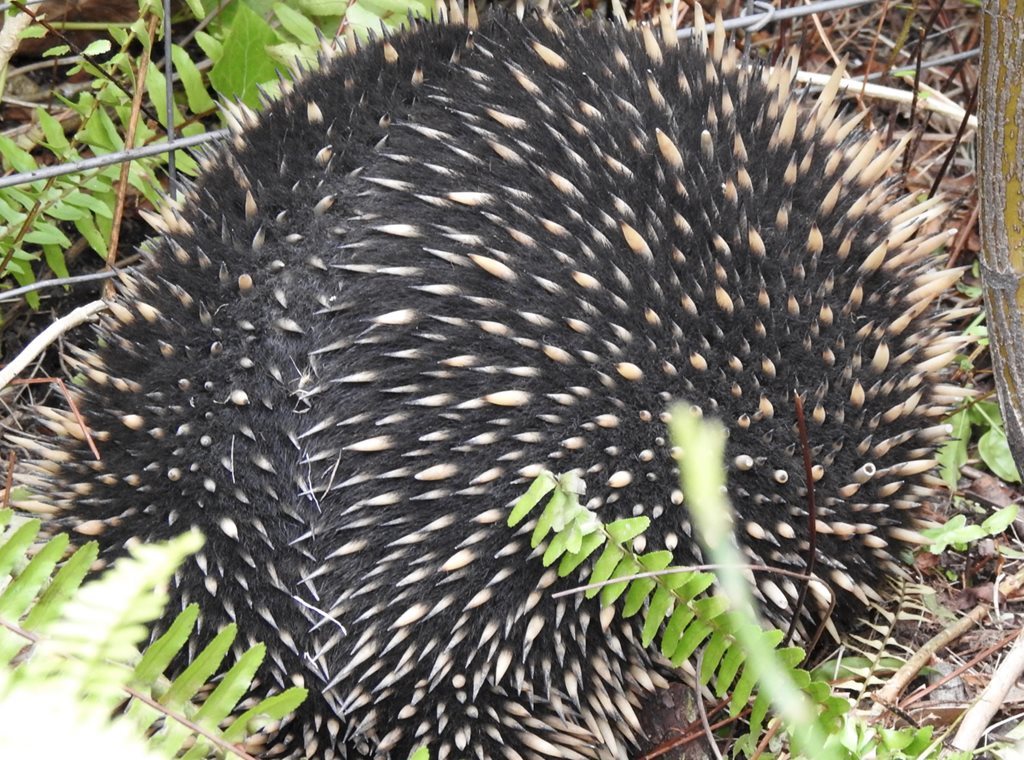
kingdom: Animalia
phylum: Chordata
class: Mammalia
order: Monotremata
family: Tachyglossidae
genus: Tachyglossus
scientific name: Tachyglossus aculeatus
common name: Short-beaked echidna
